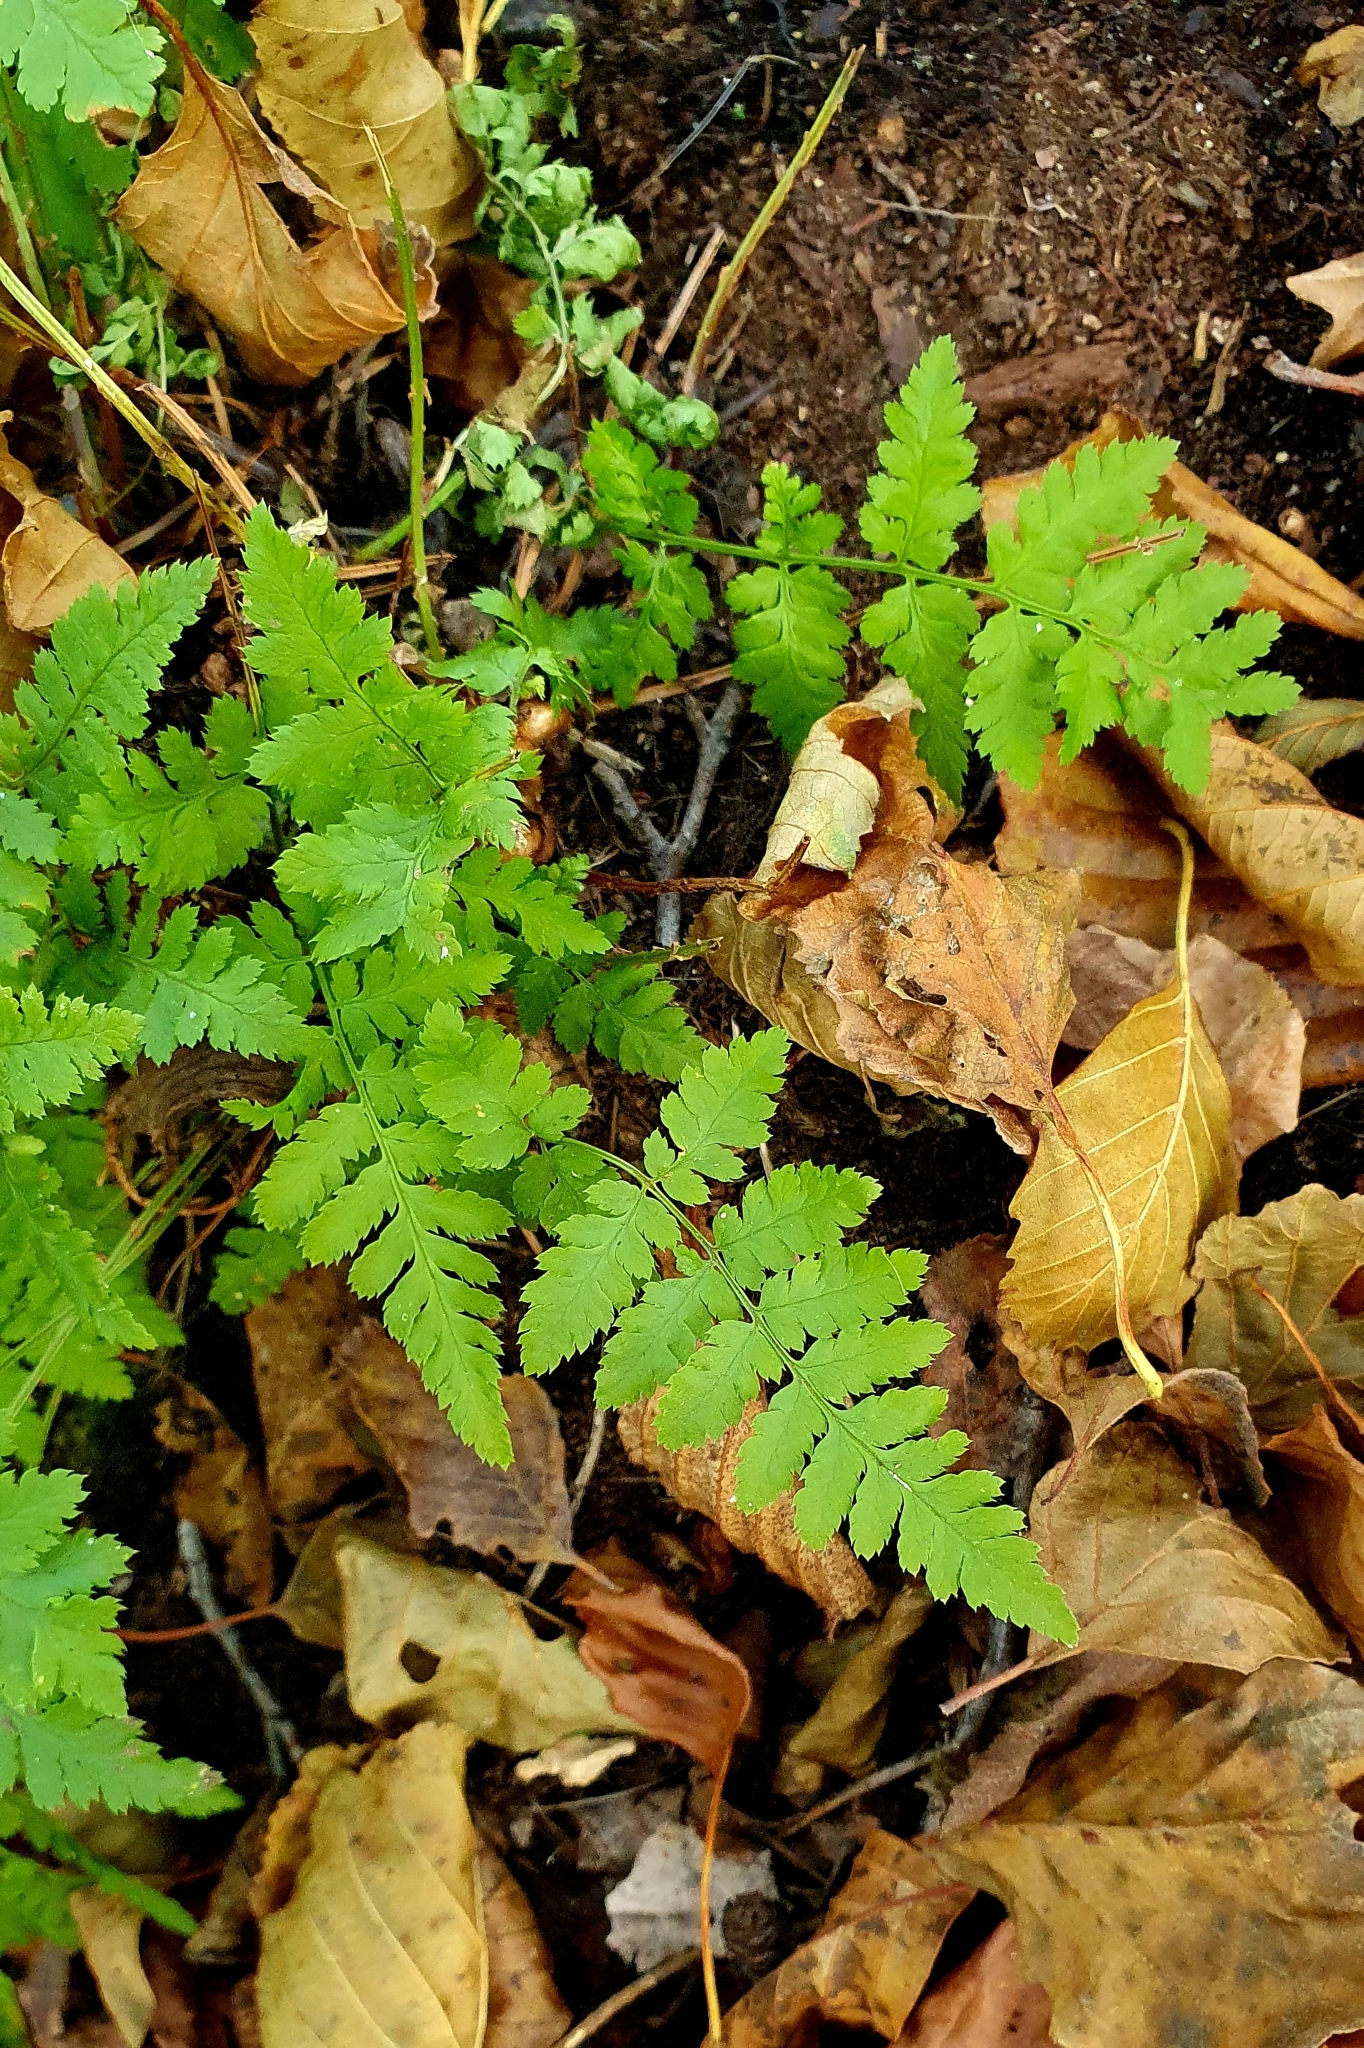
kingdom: Plantae
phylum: Tracheophyta
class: Polypodiopsida
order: Polypodiales
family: Dryopteridaceae
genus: Dryopteris
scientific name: Dryopteris carthusiana
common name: Narrow buckler-fern
